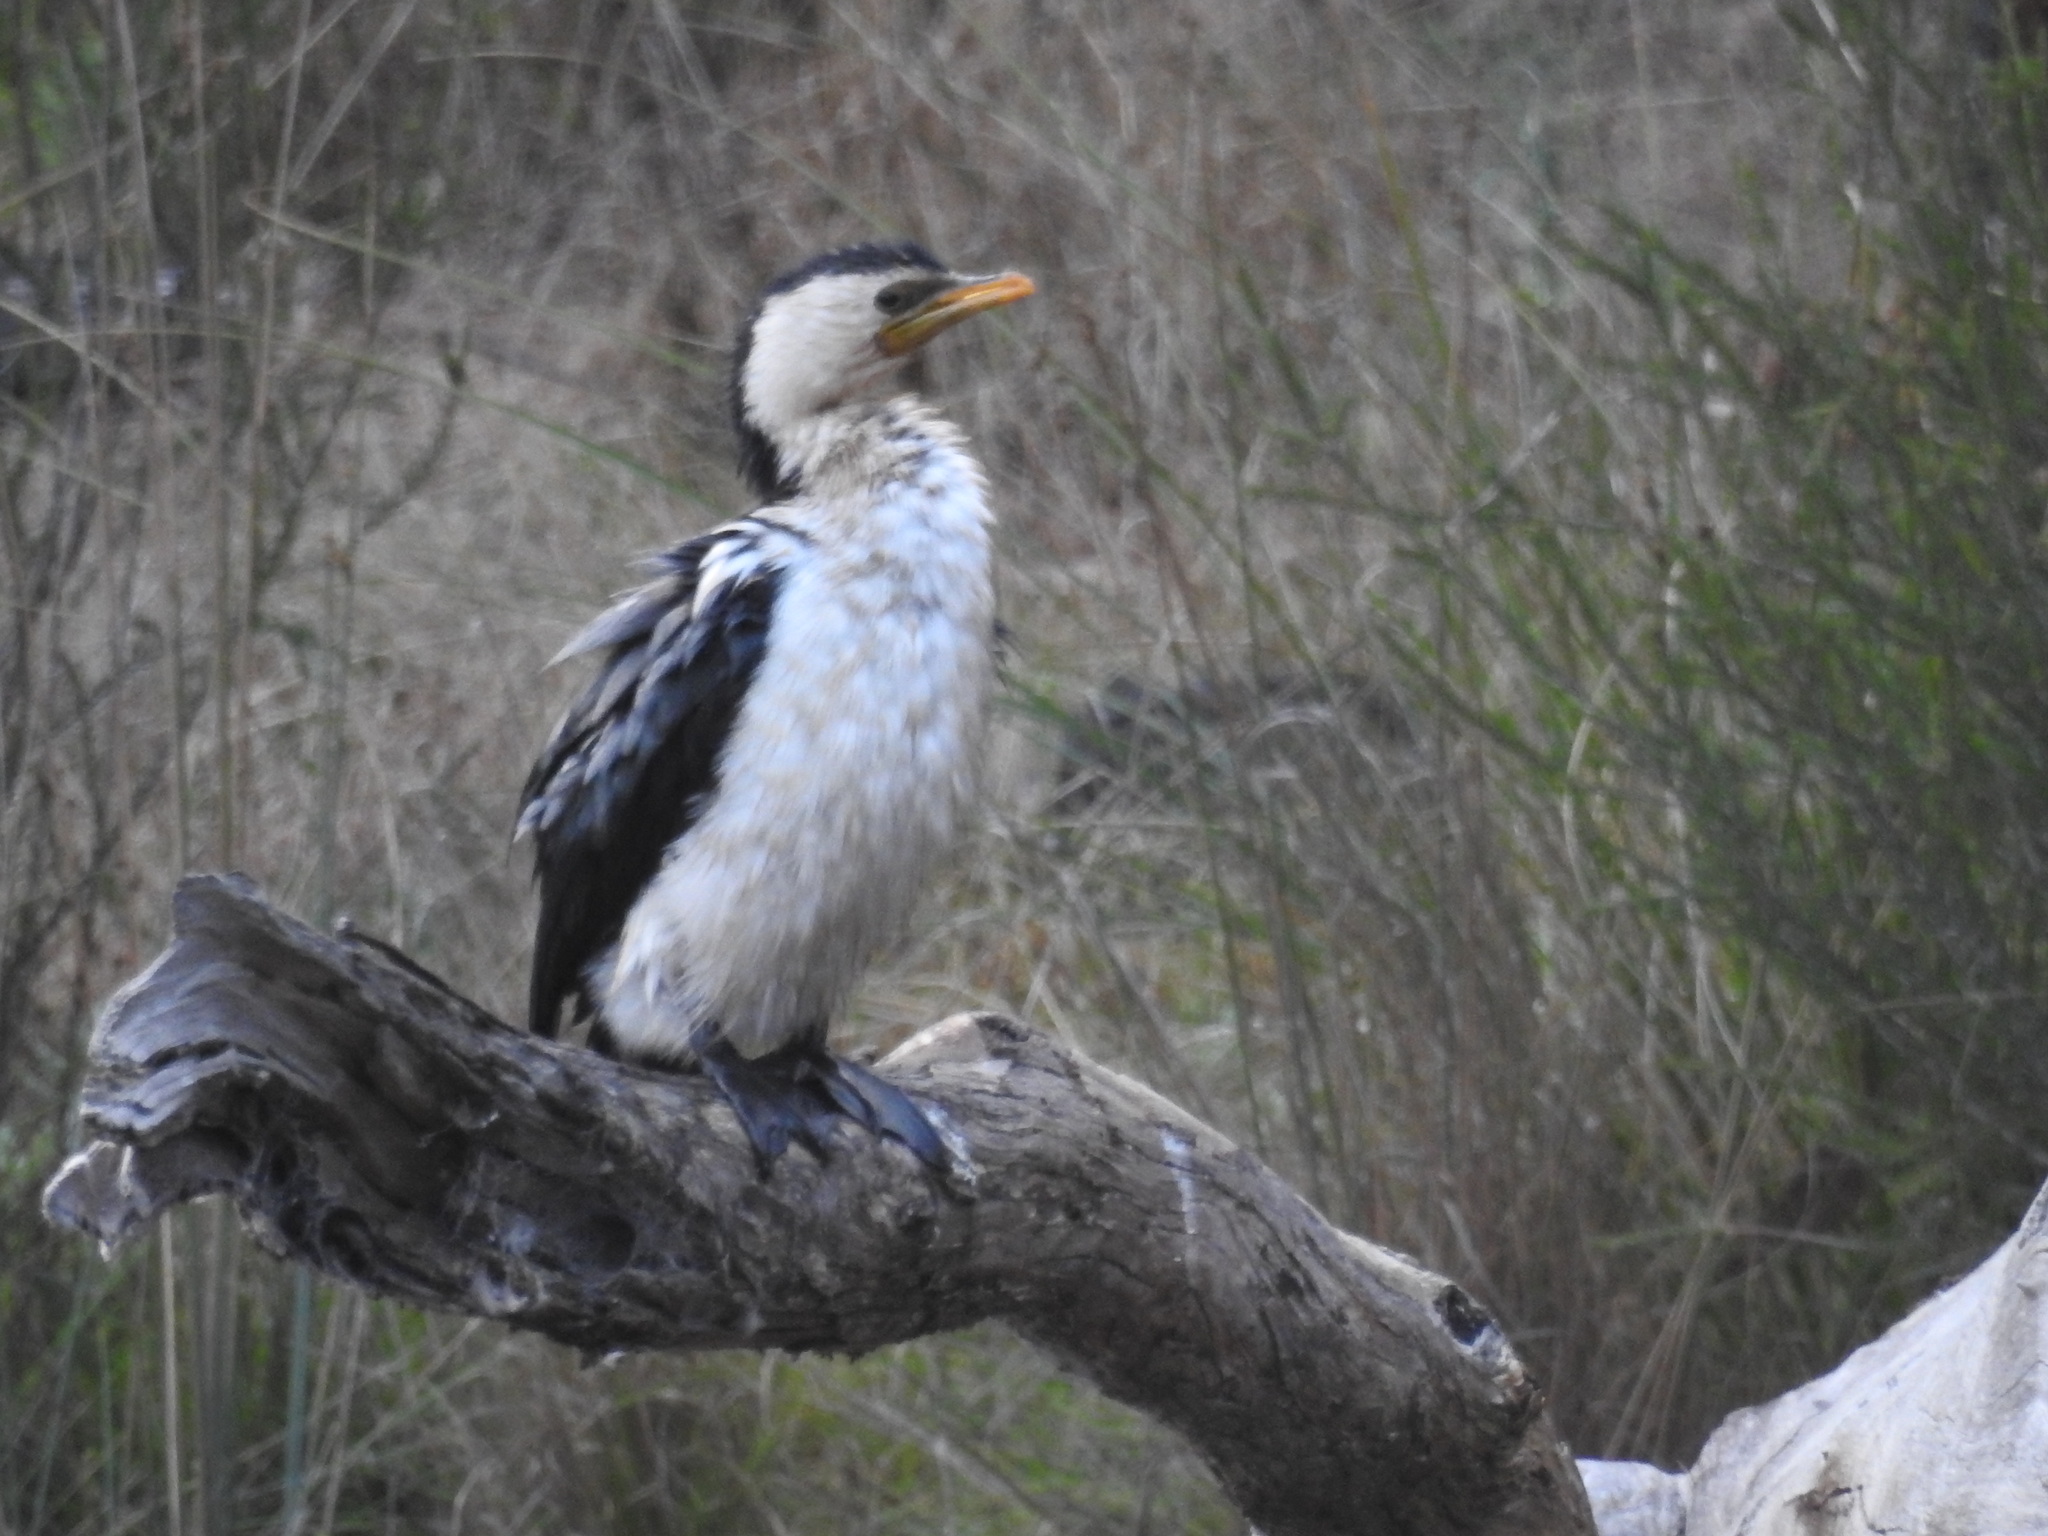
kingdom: Animalia
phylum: Chordata
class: Aves
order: Suliformes
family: Phalacrocoracidae
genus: Microcarbo
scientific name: Microcarbo melanoleucos
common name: Little pied cormorant
